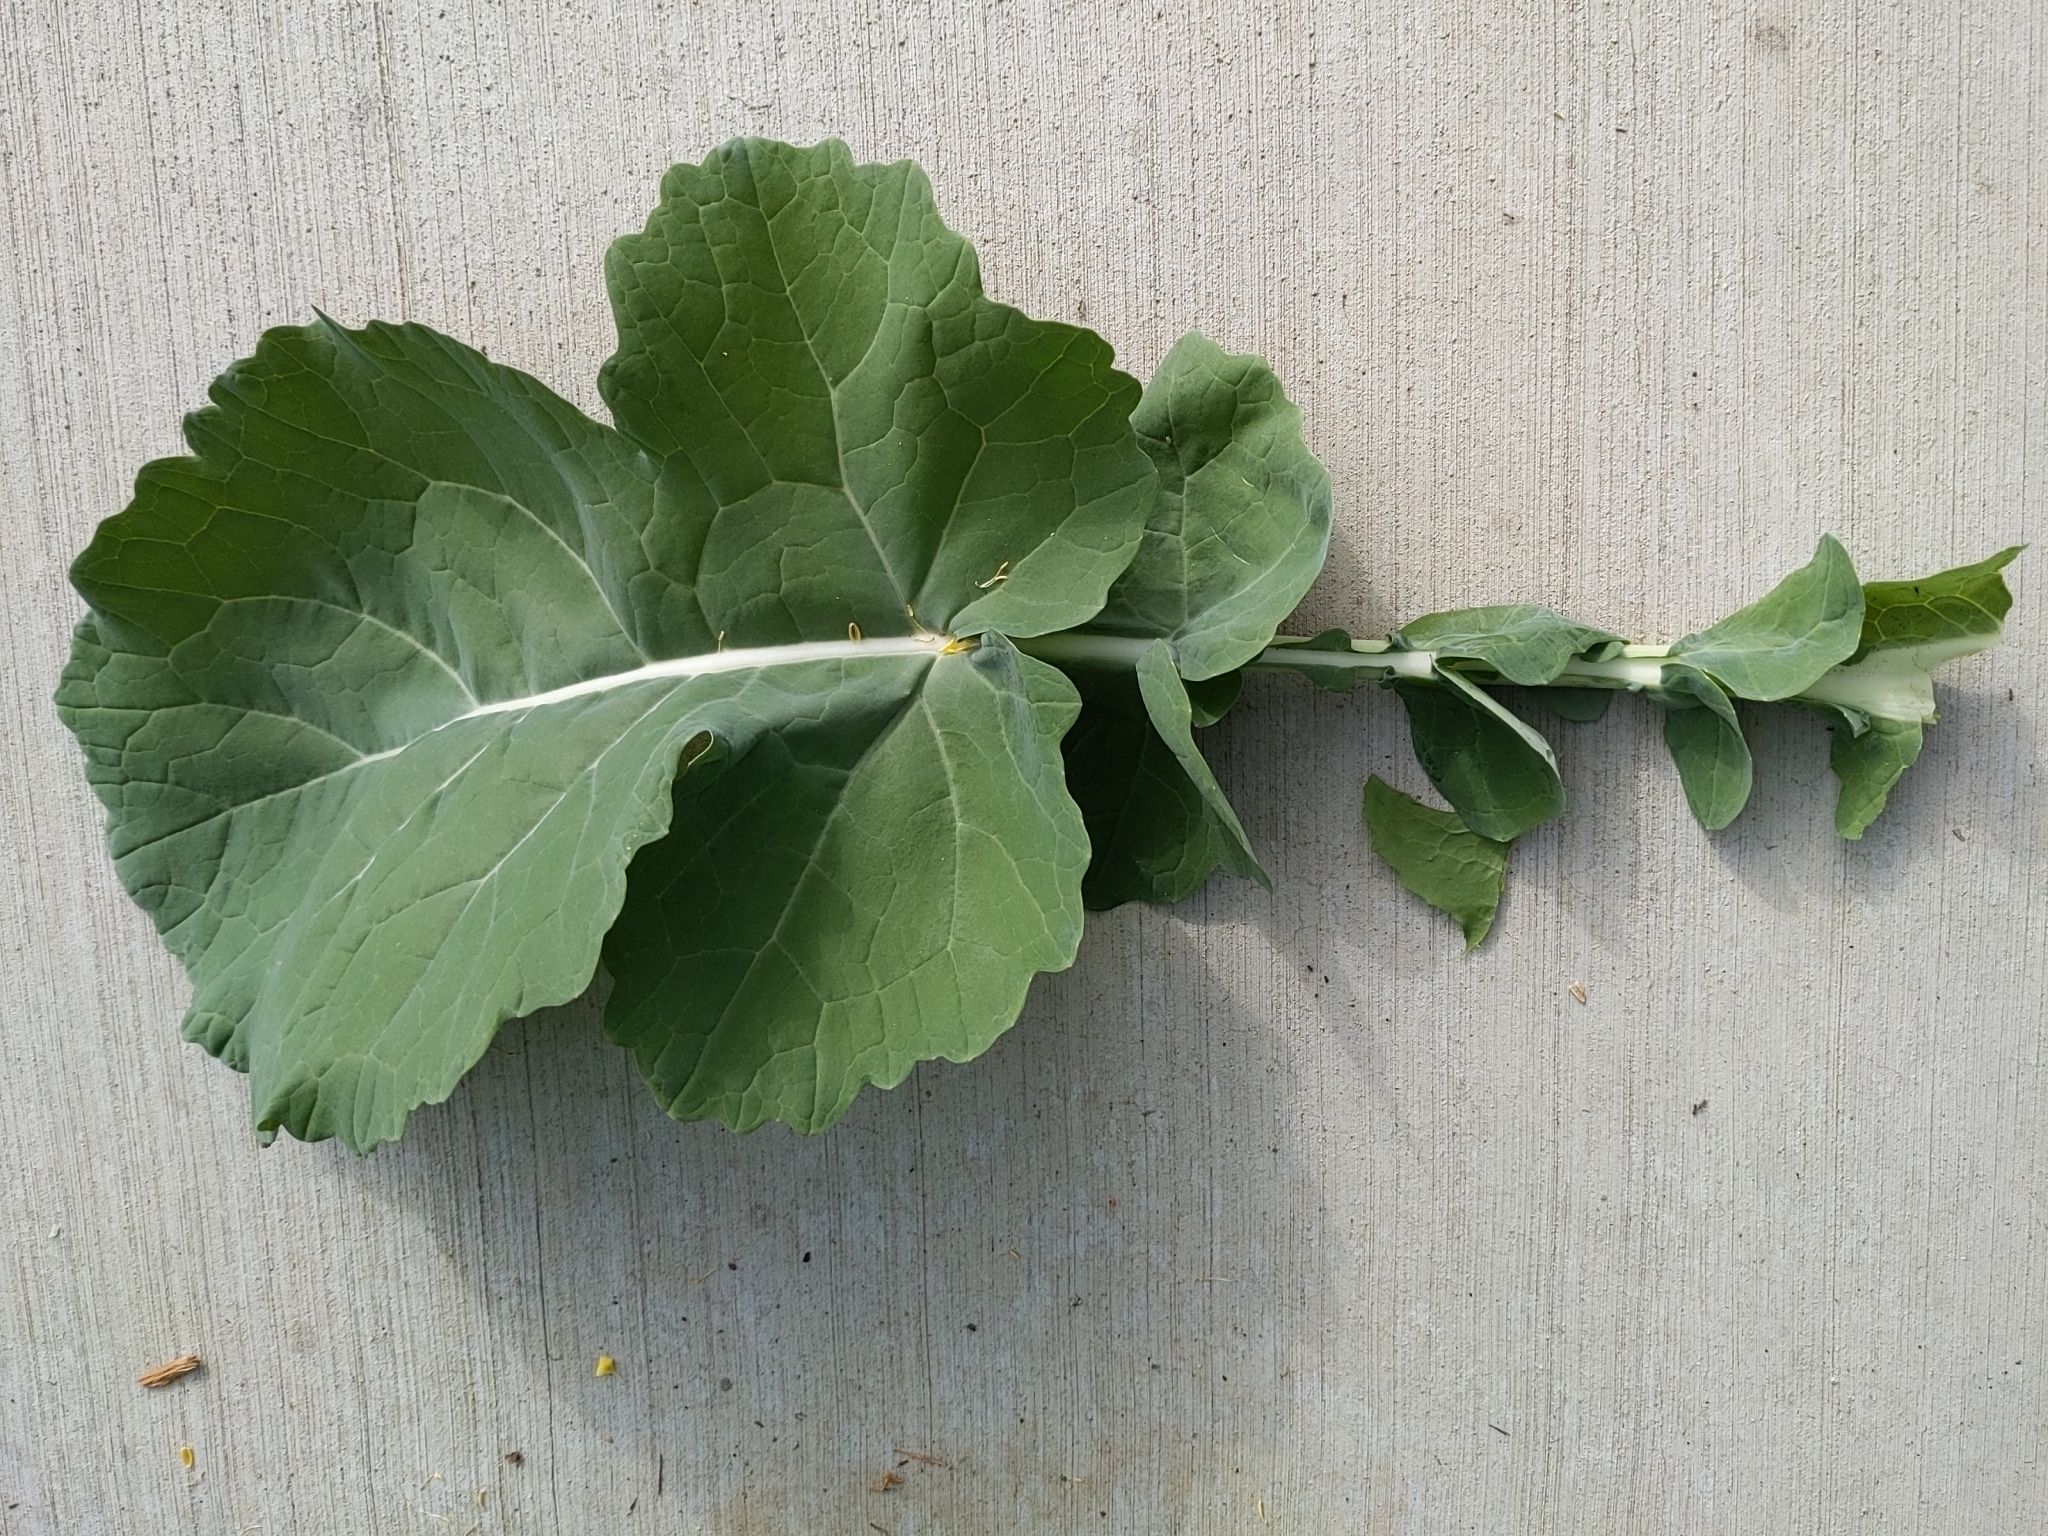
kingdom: Plantae
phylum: Tracheophyta
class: Magnoliopsida
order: Brassicales
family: Brassicaceae
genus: Brassica
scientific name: Brassica napus
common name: Rape
